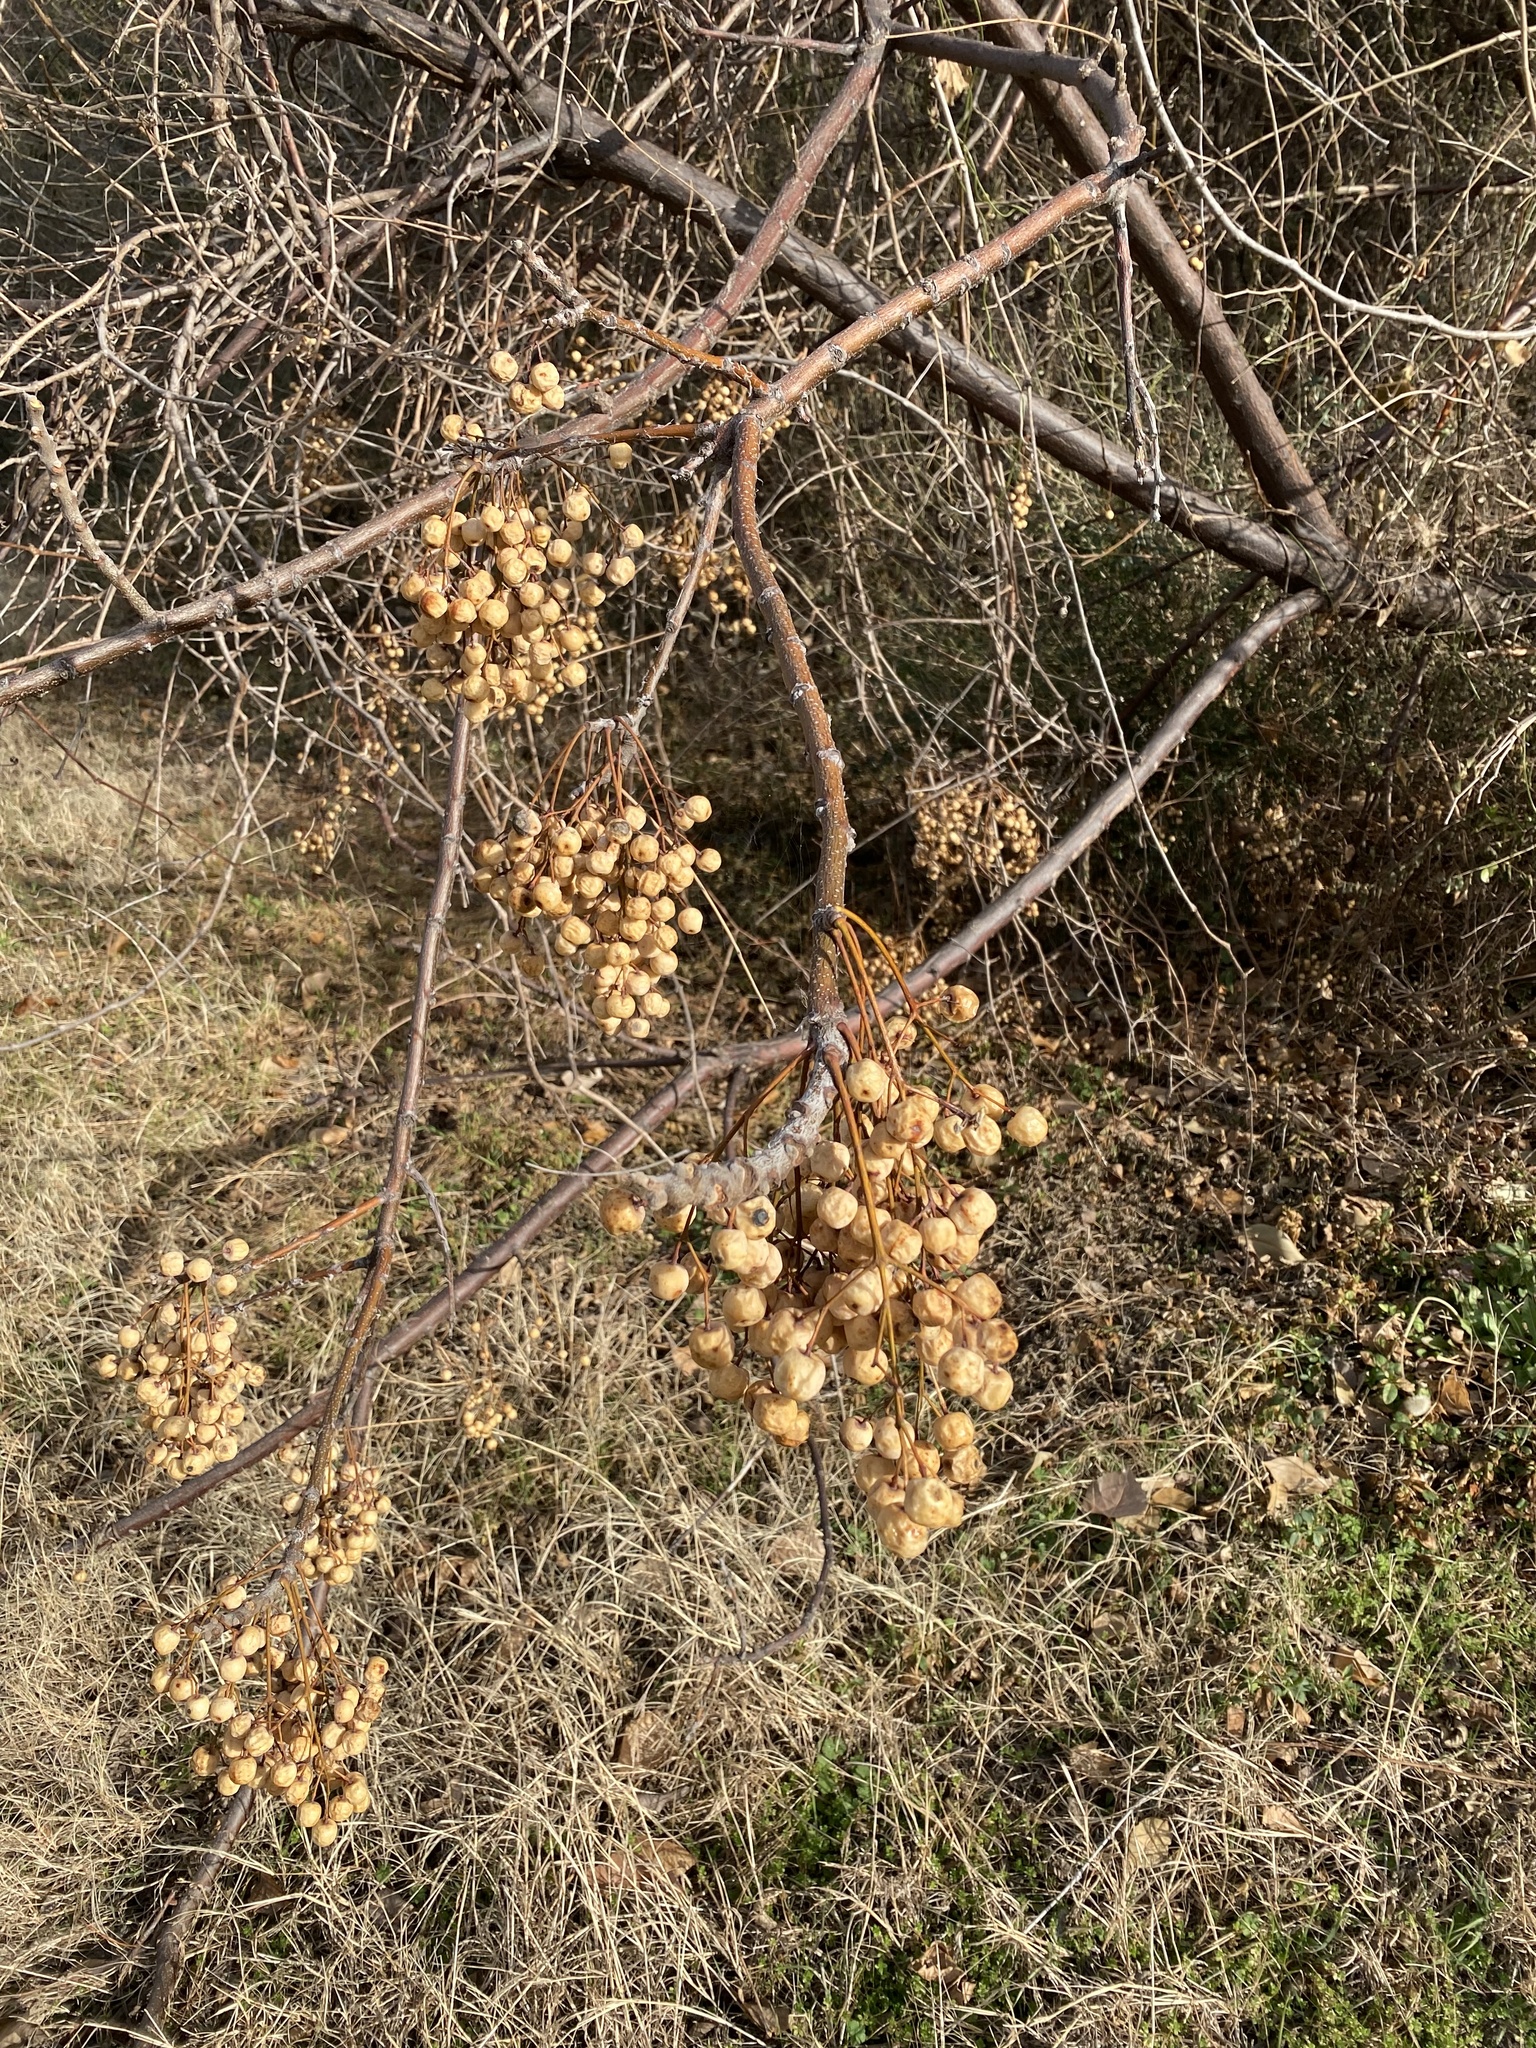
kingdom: Plantae
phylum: Tracheophyta
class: Magnoliopsida
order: Sapindales
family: Meliaceae
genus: Melia
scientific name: Melia azedarach
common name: Chinaberrytree
